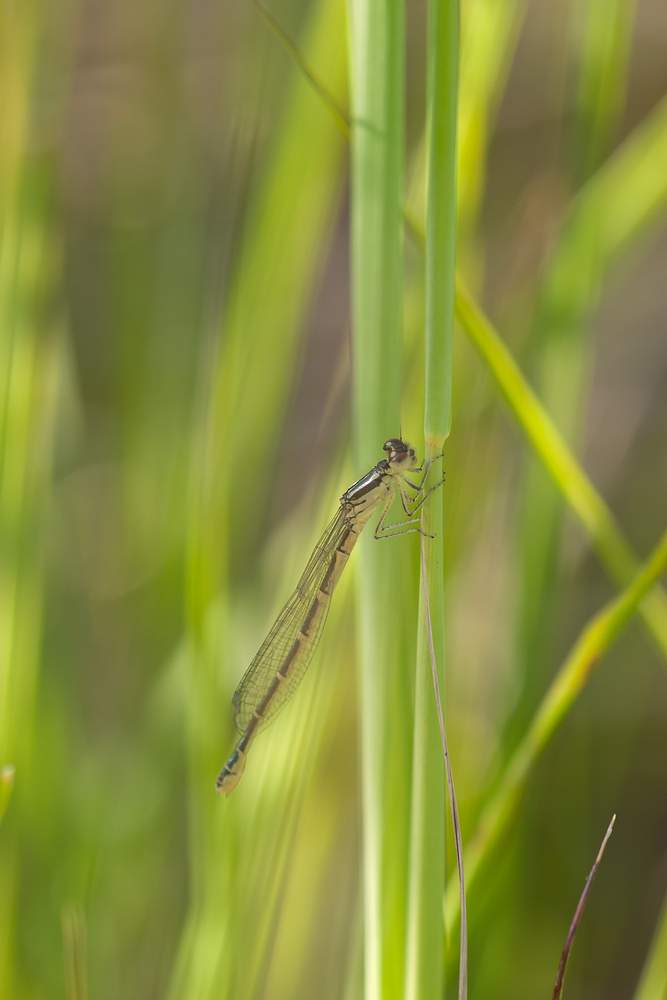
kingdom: Animalia
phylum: Arthropoda
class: Insecta
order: Odonata
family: Coenagrionidae
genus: Coenagrion
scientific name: Coenagrion scitulum
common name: Dainty bluet
